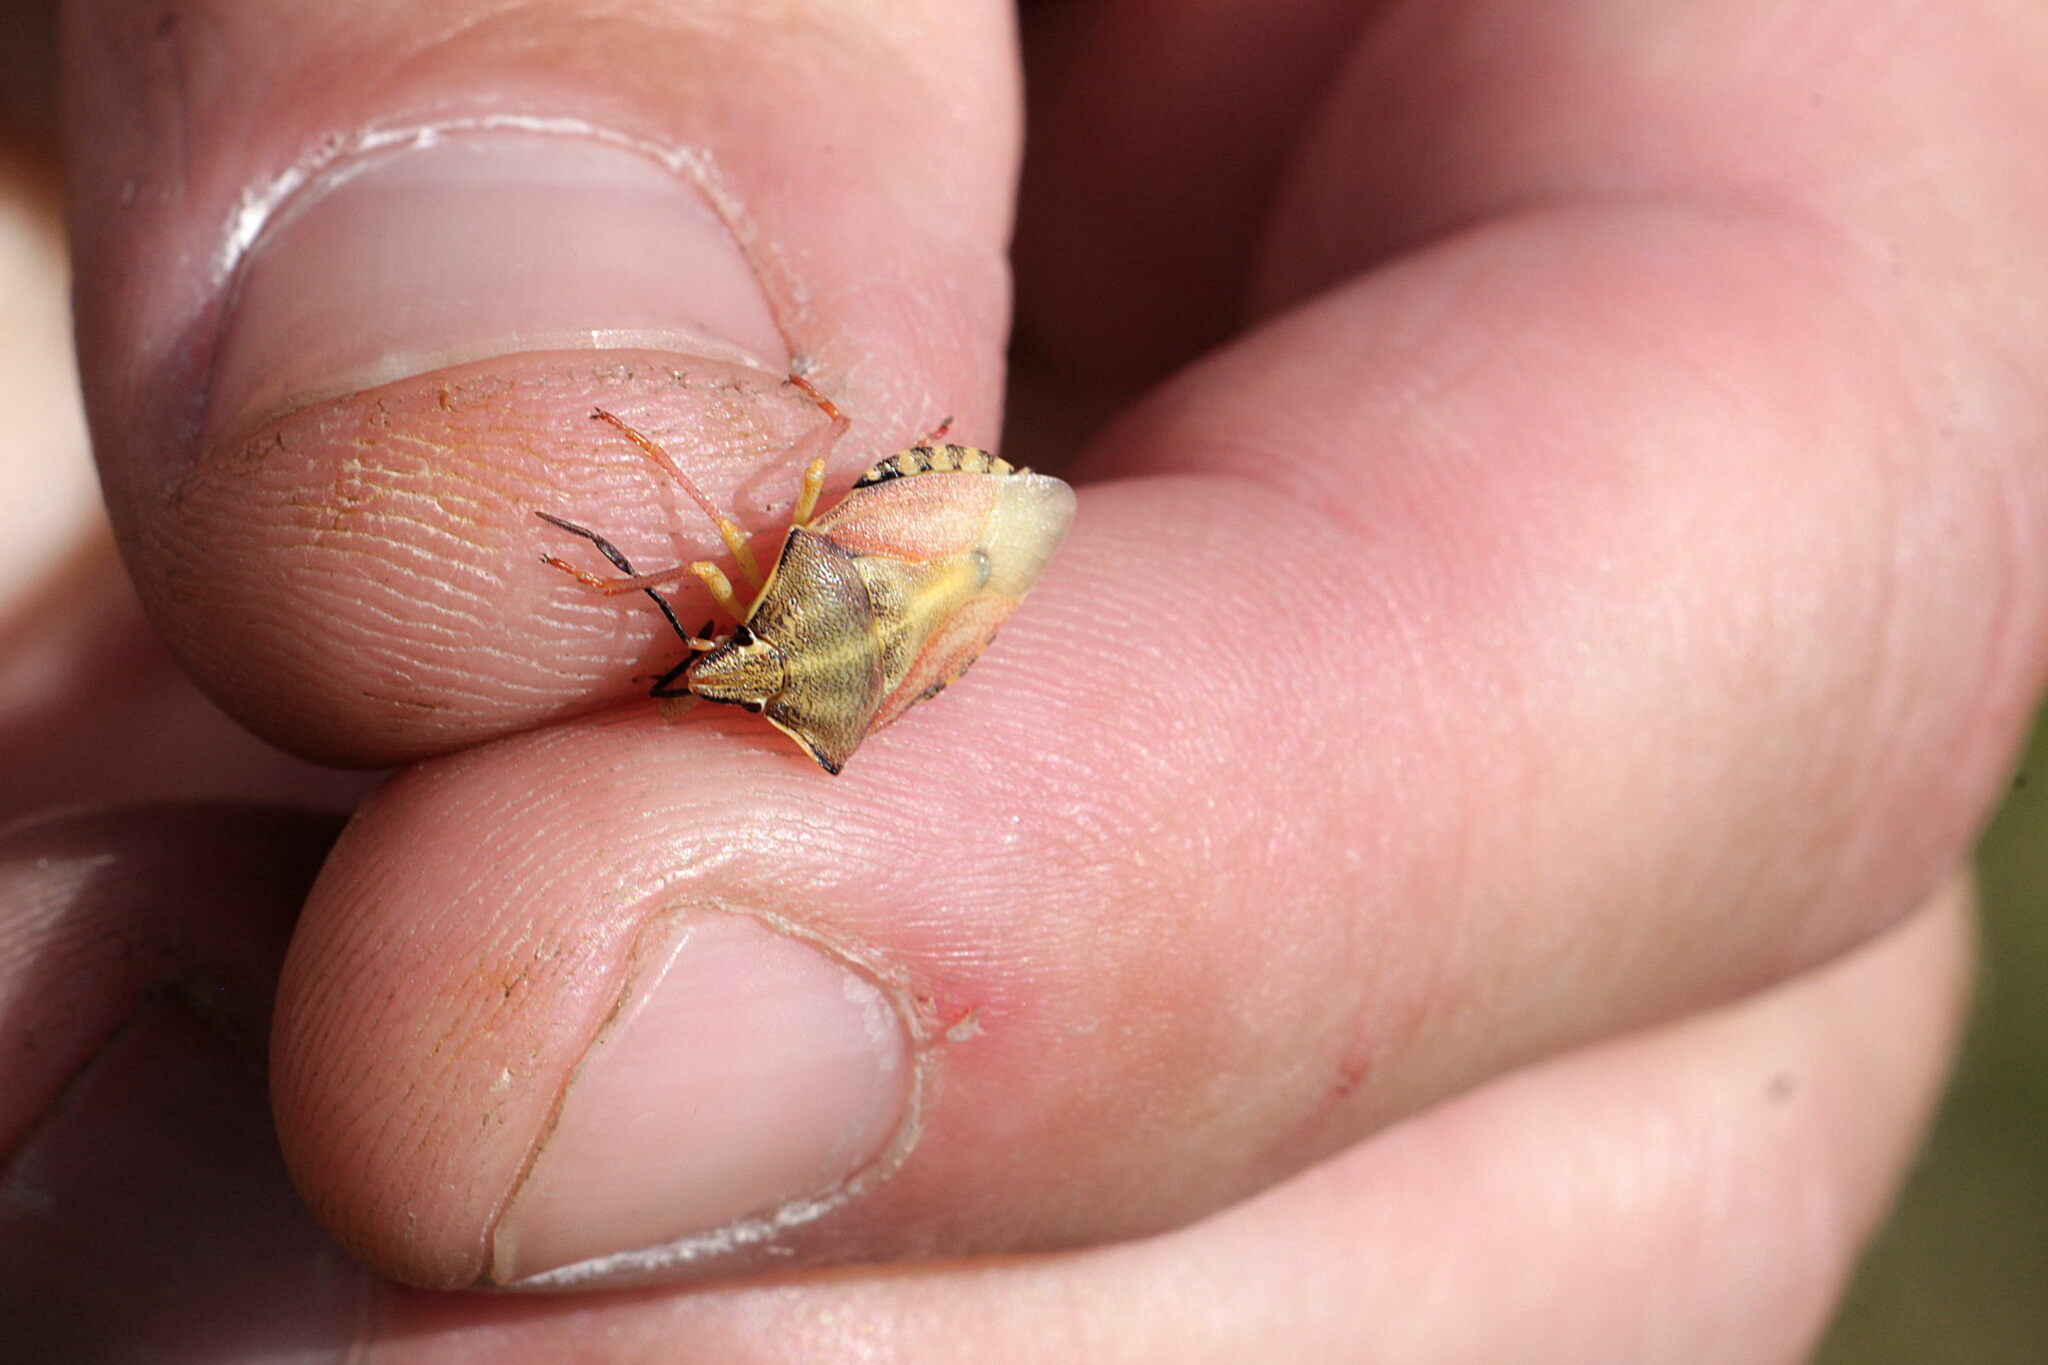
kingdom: Animalia
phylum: Arthropoda
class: Insecta
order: Hemiptera
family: Pentatomidae
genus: Carpocoris
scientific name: Carpocoris purpureipennis
